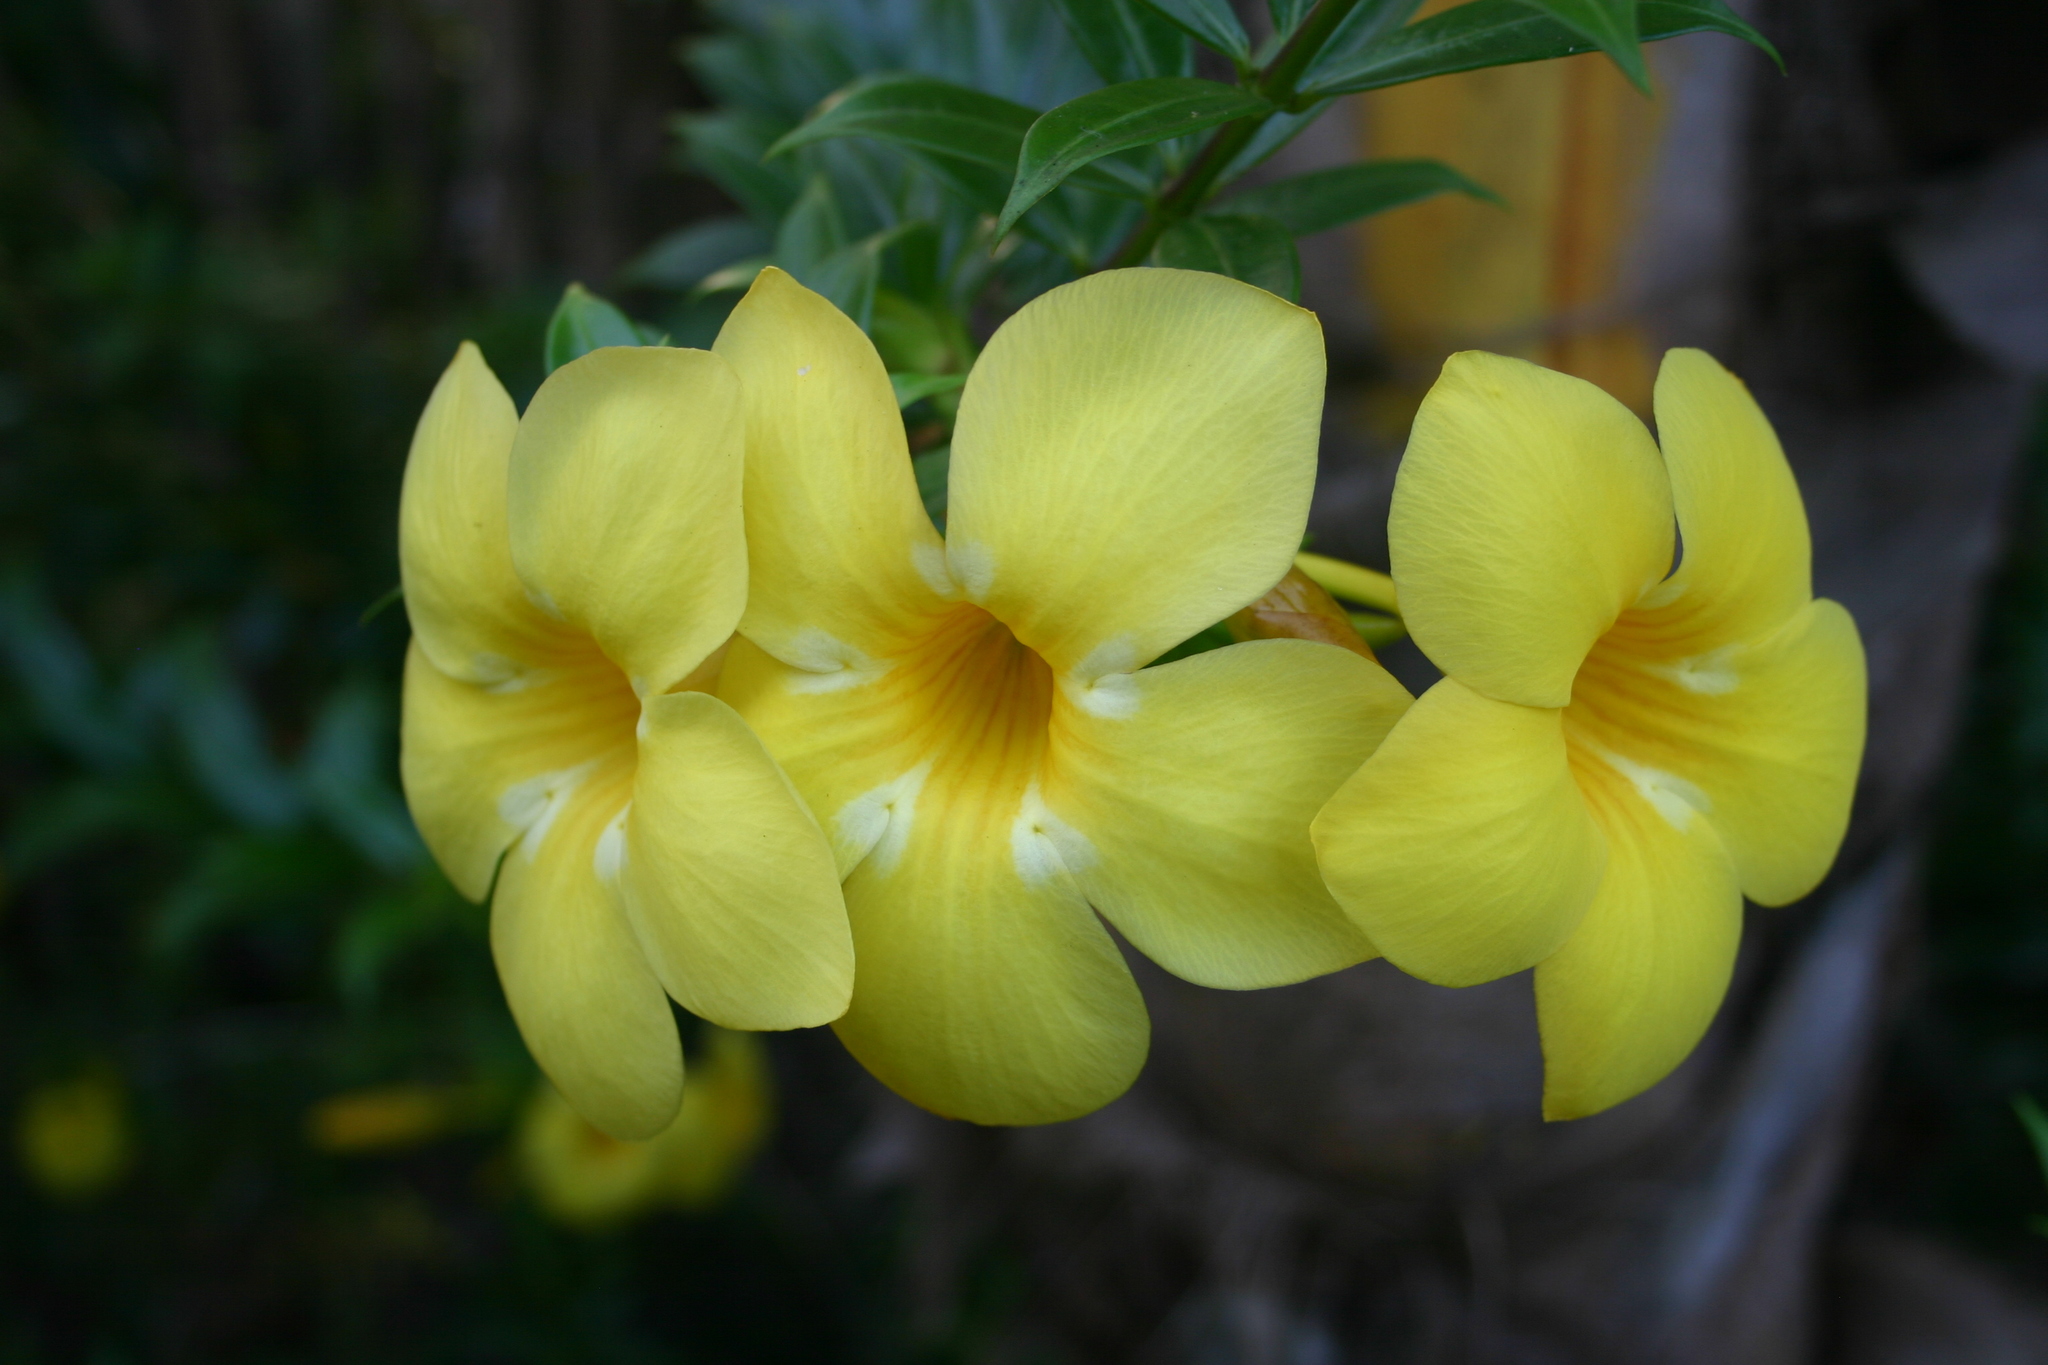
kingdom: Plantae
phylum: Tracheophyta
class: Magnoliopsida
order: Gentianales
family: Apocynaceae
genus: Allamanda
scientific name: Allamanda cathartica
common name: Golden trumpet
